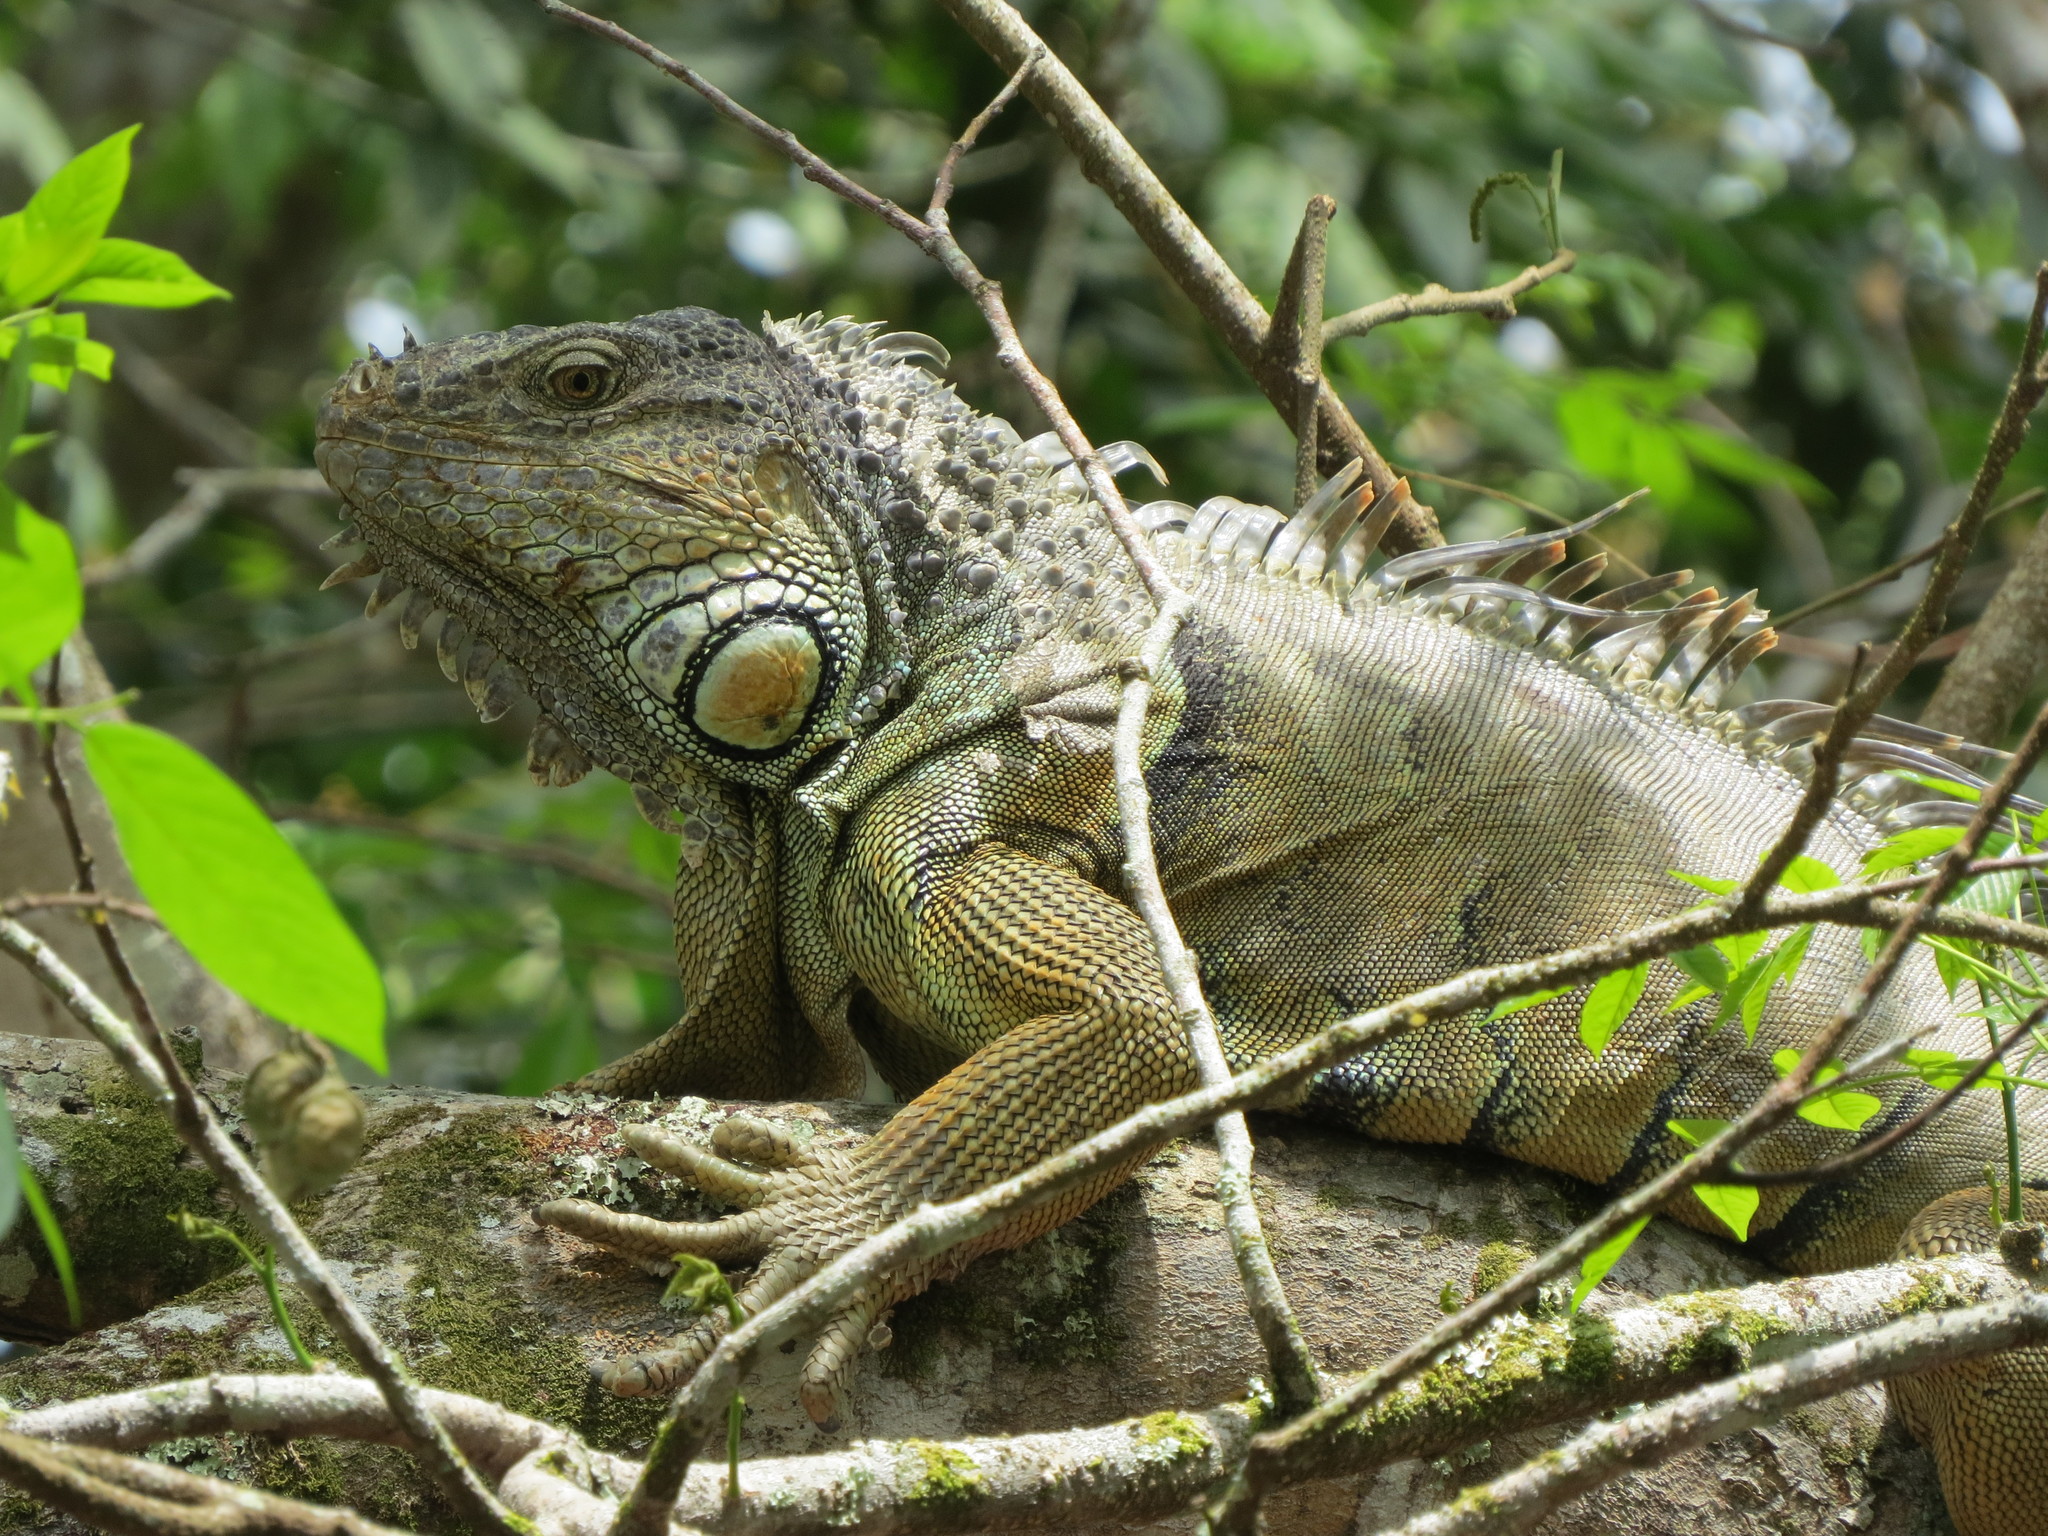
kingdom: Animalia
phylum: Chordata
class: Squamata
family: Iguanidae
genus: Iguana
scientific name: Iguana iguana
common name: Green iguana
